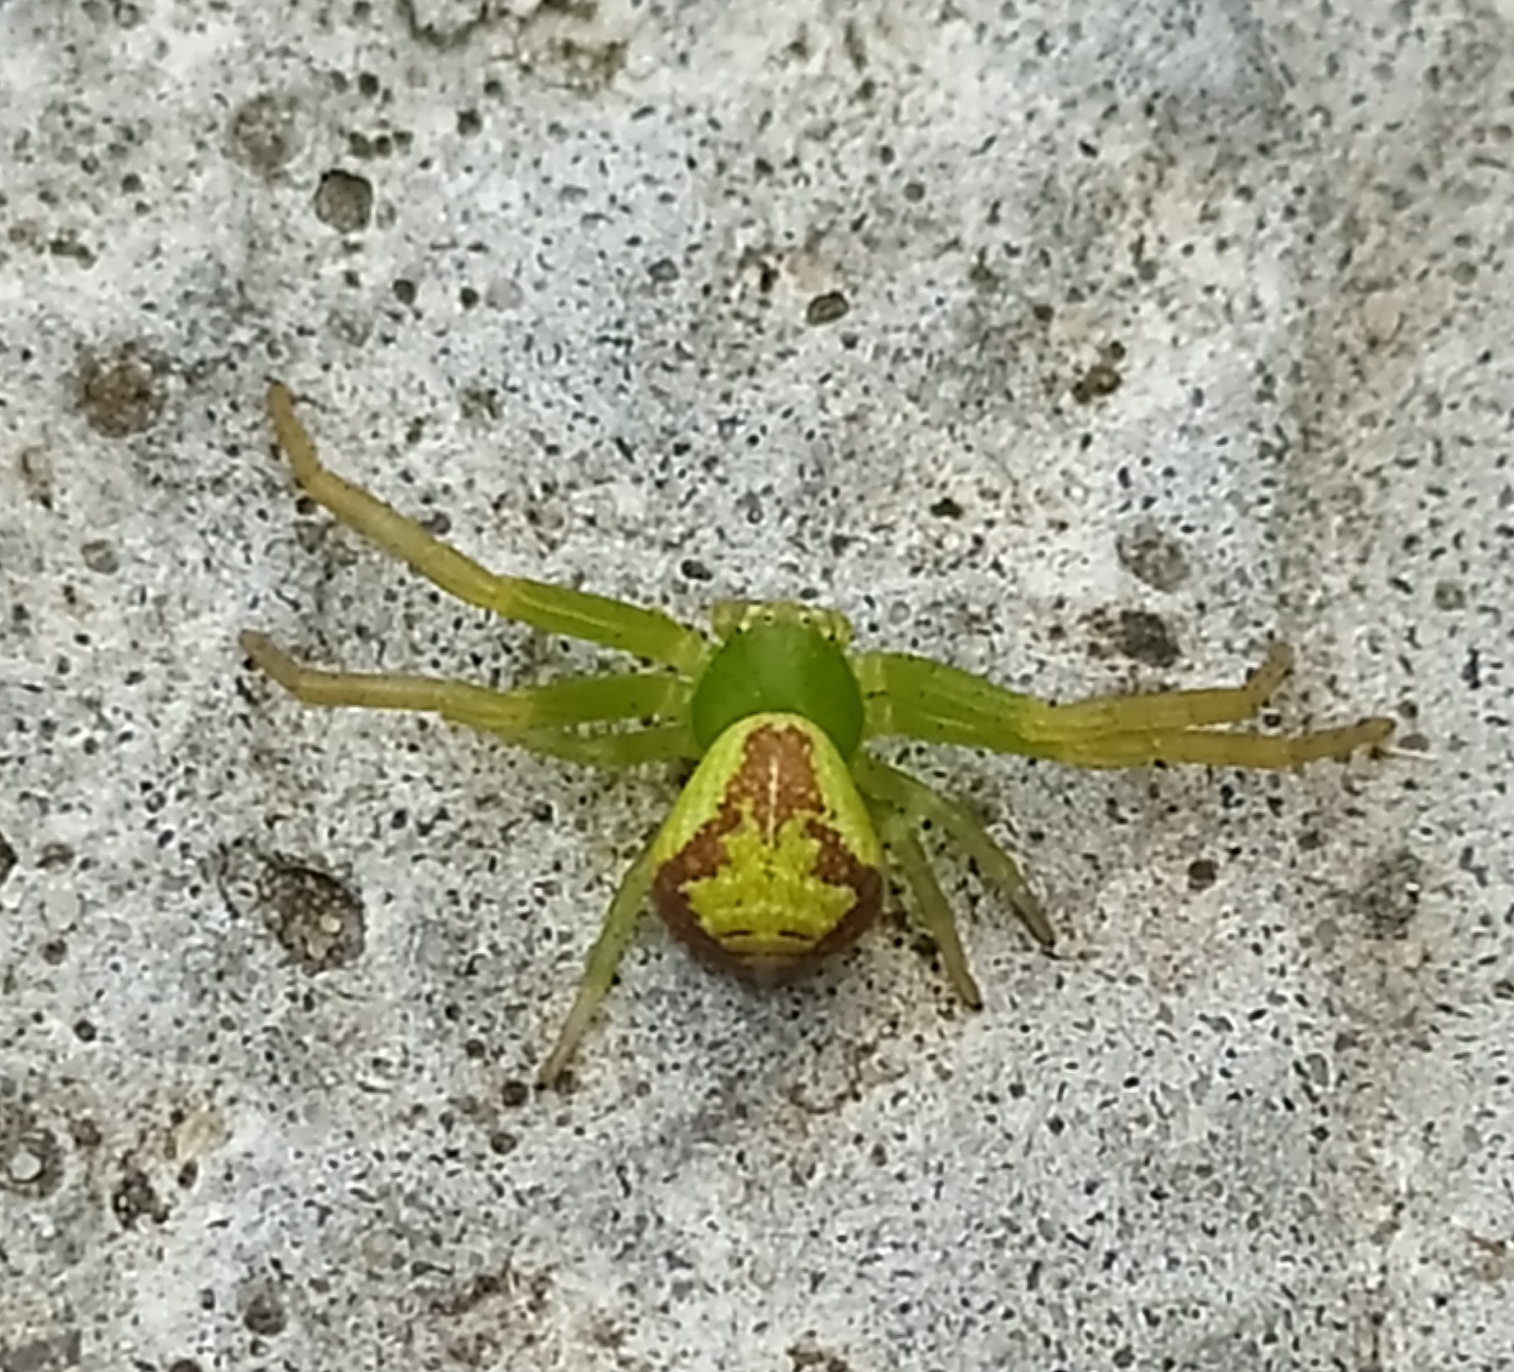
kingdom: Animalia
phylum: Arthropoda
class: Arachnida
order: Araneae
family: Thomisidae
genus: Ebrechtella
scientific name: Ebrechtella tricuspidata
